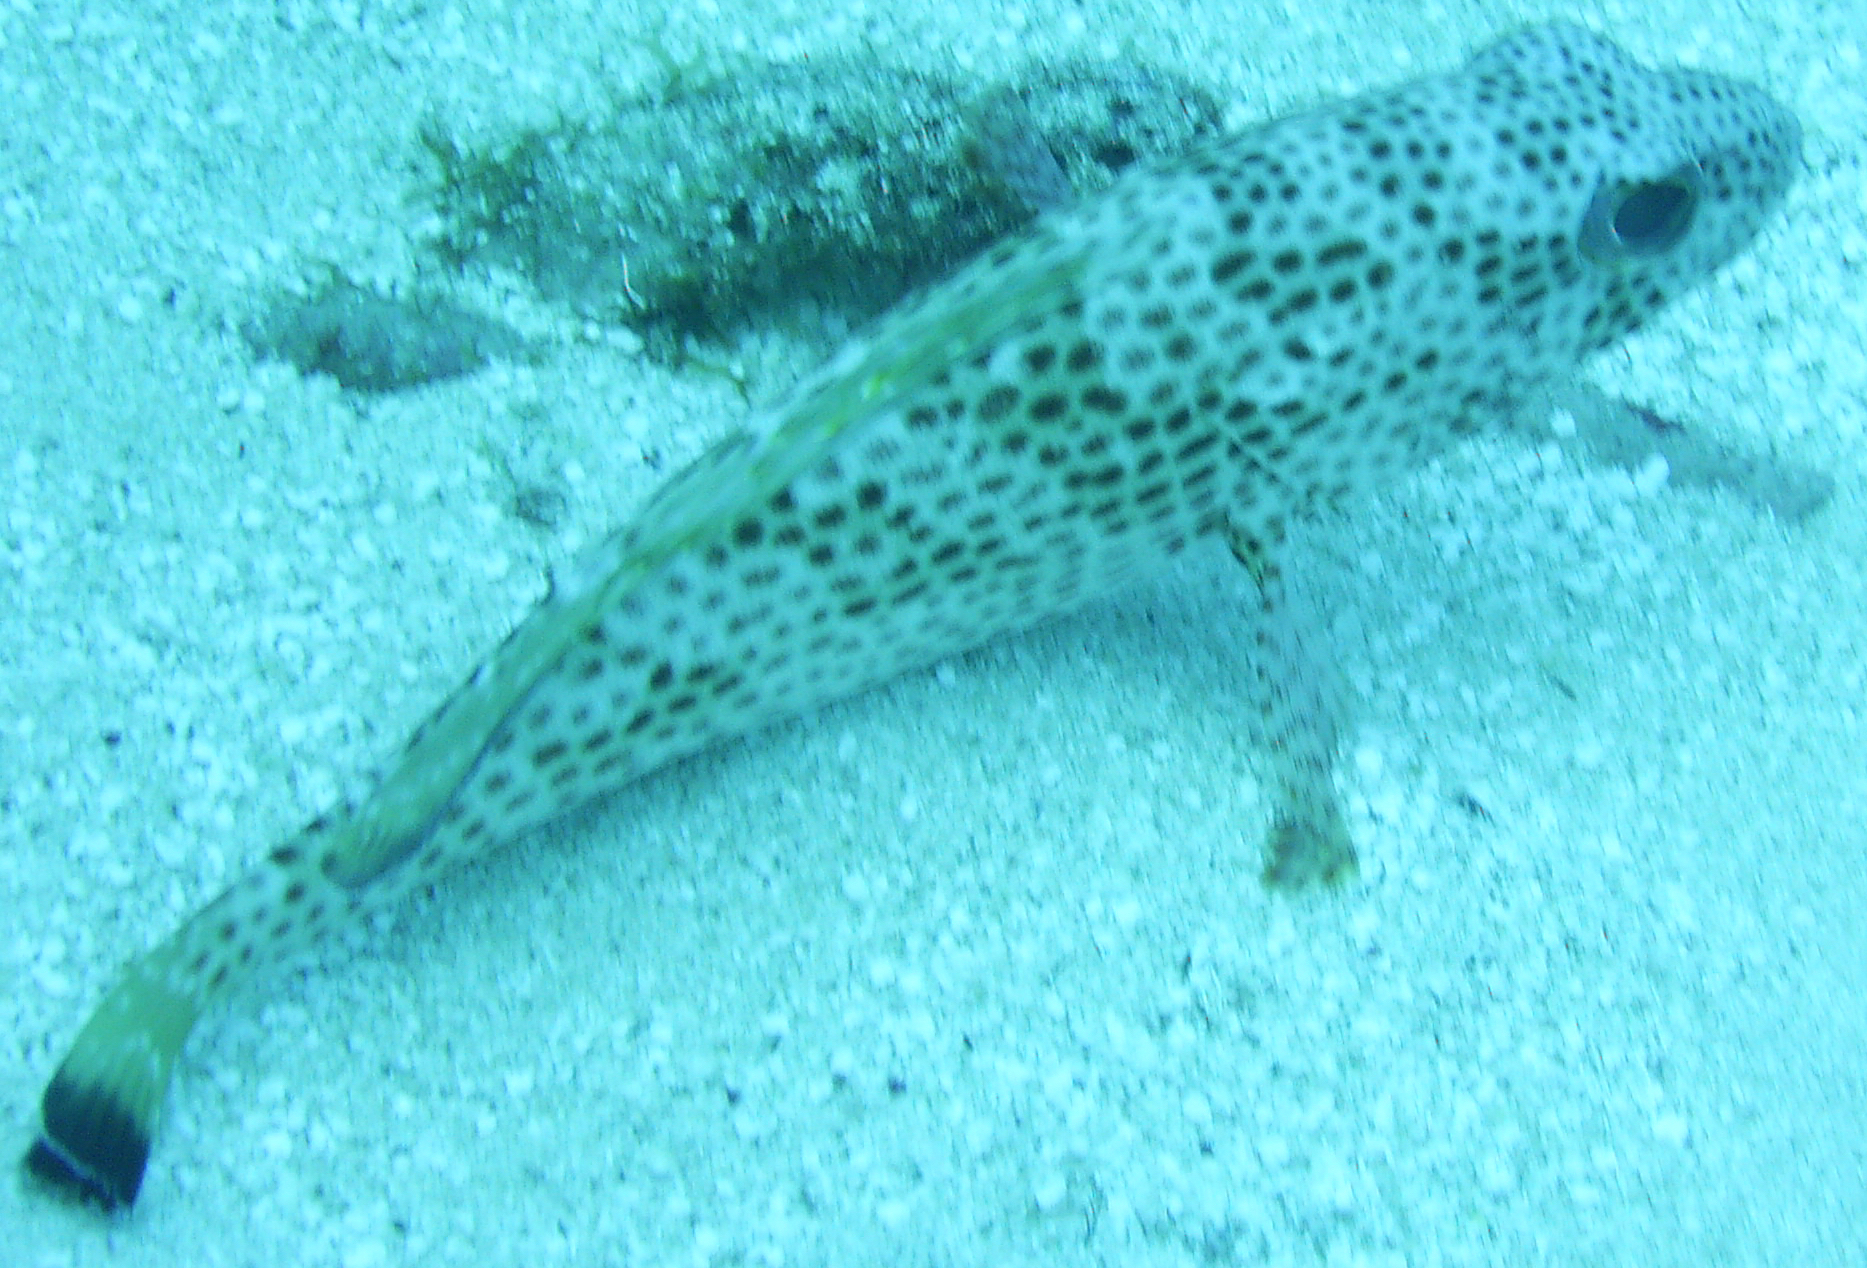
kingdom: Animalia
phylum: Chordata
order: Perciformes
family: Serranidae
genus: Epinephelus
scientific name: Epinephelus guttatus
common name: Red hind
